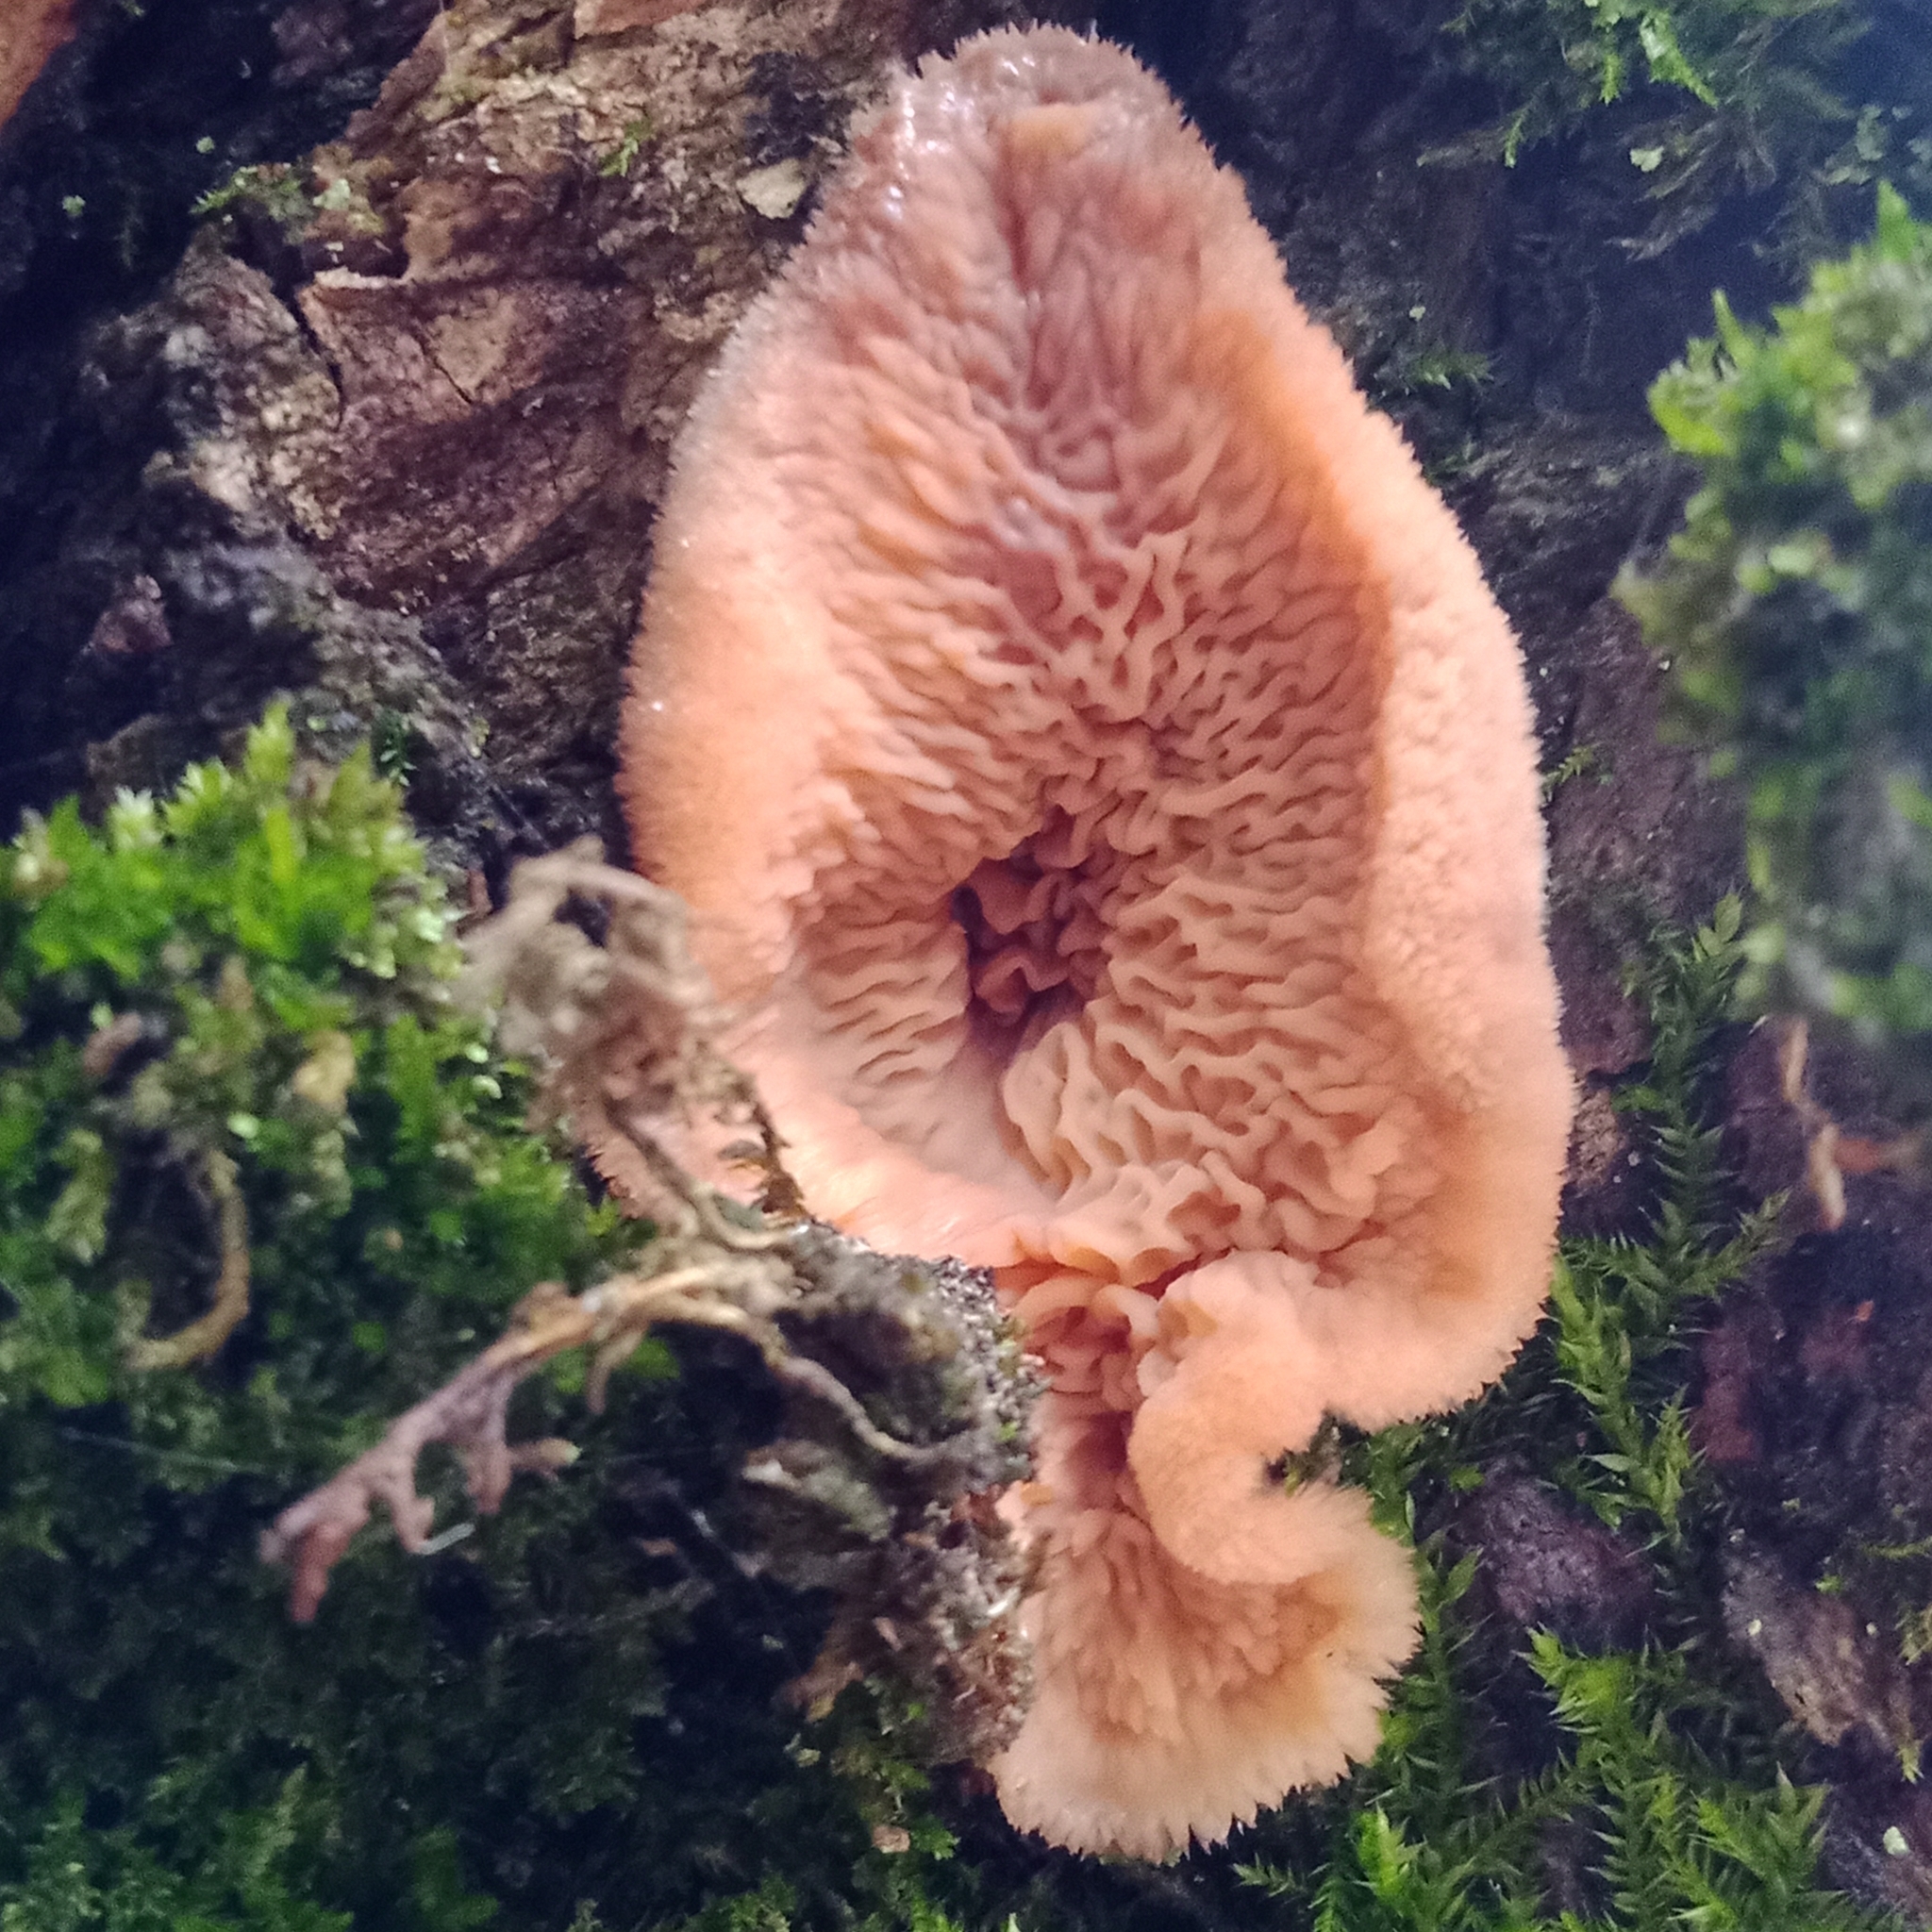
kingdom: Fungi
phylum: Basidiomycota
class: Agaricomycetes
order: Polyporales
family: Meruliaceae
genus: Phlebia
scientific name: Phlebia tremellosa
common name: Jelly rot
